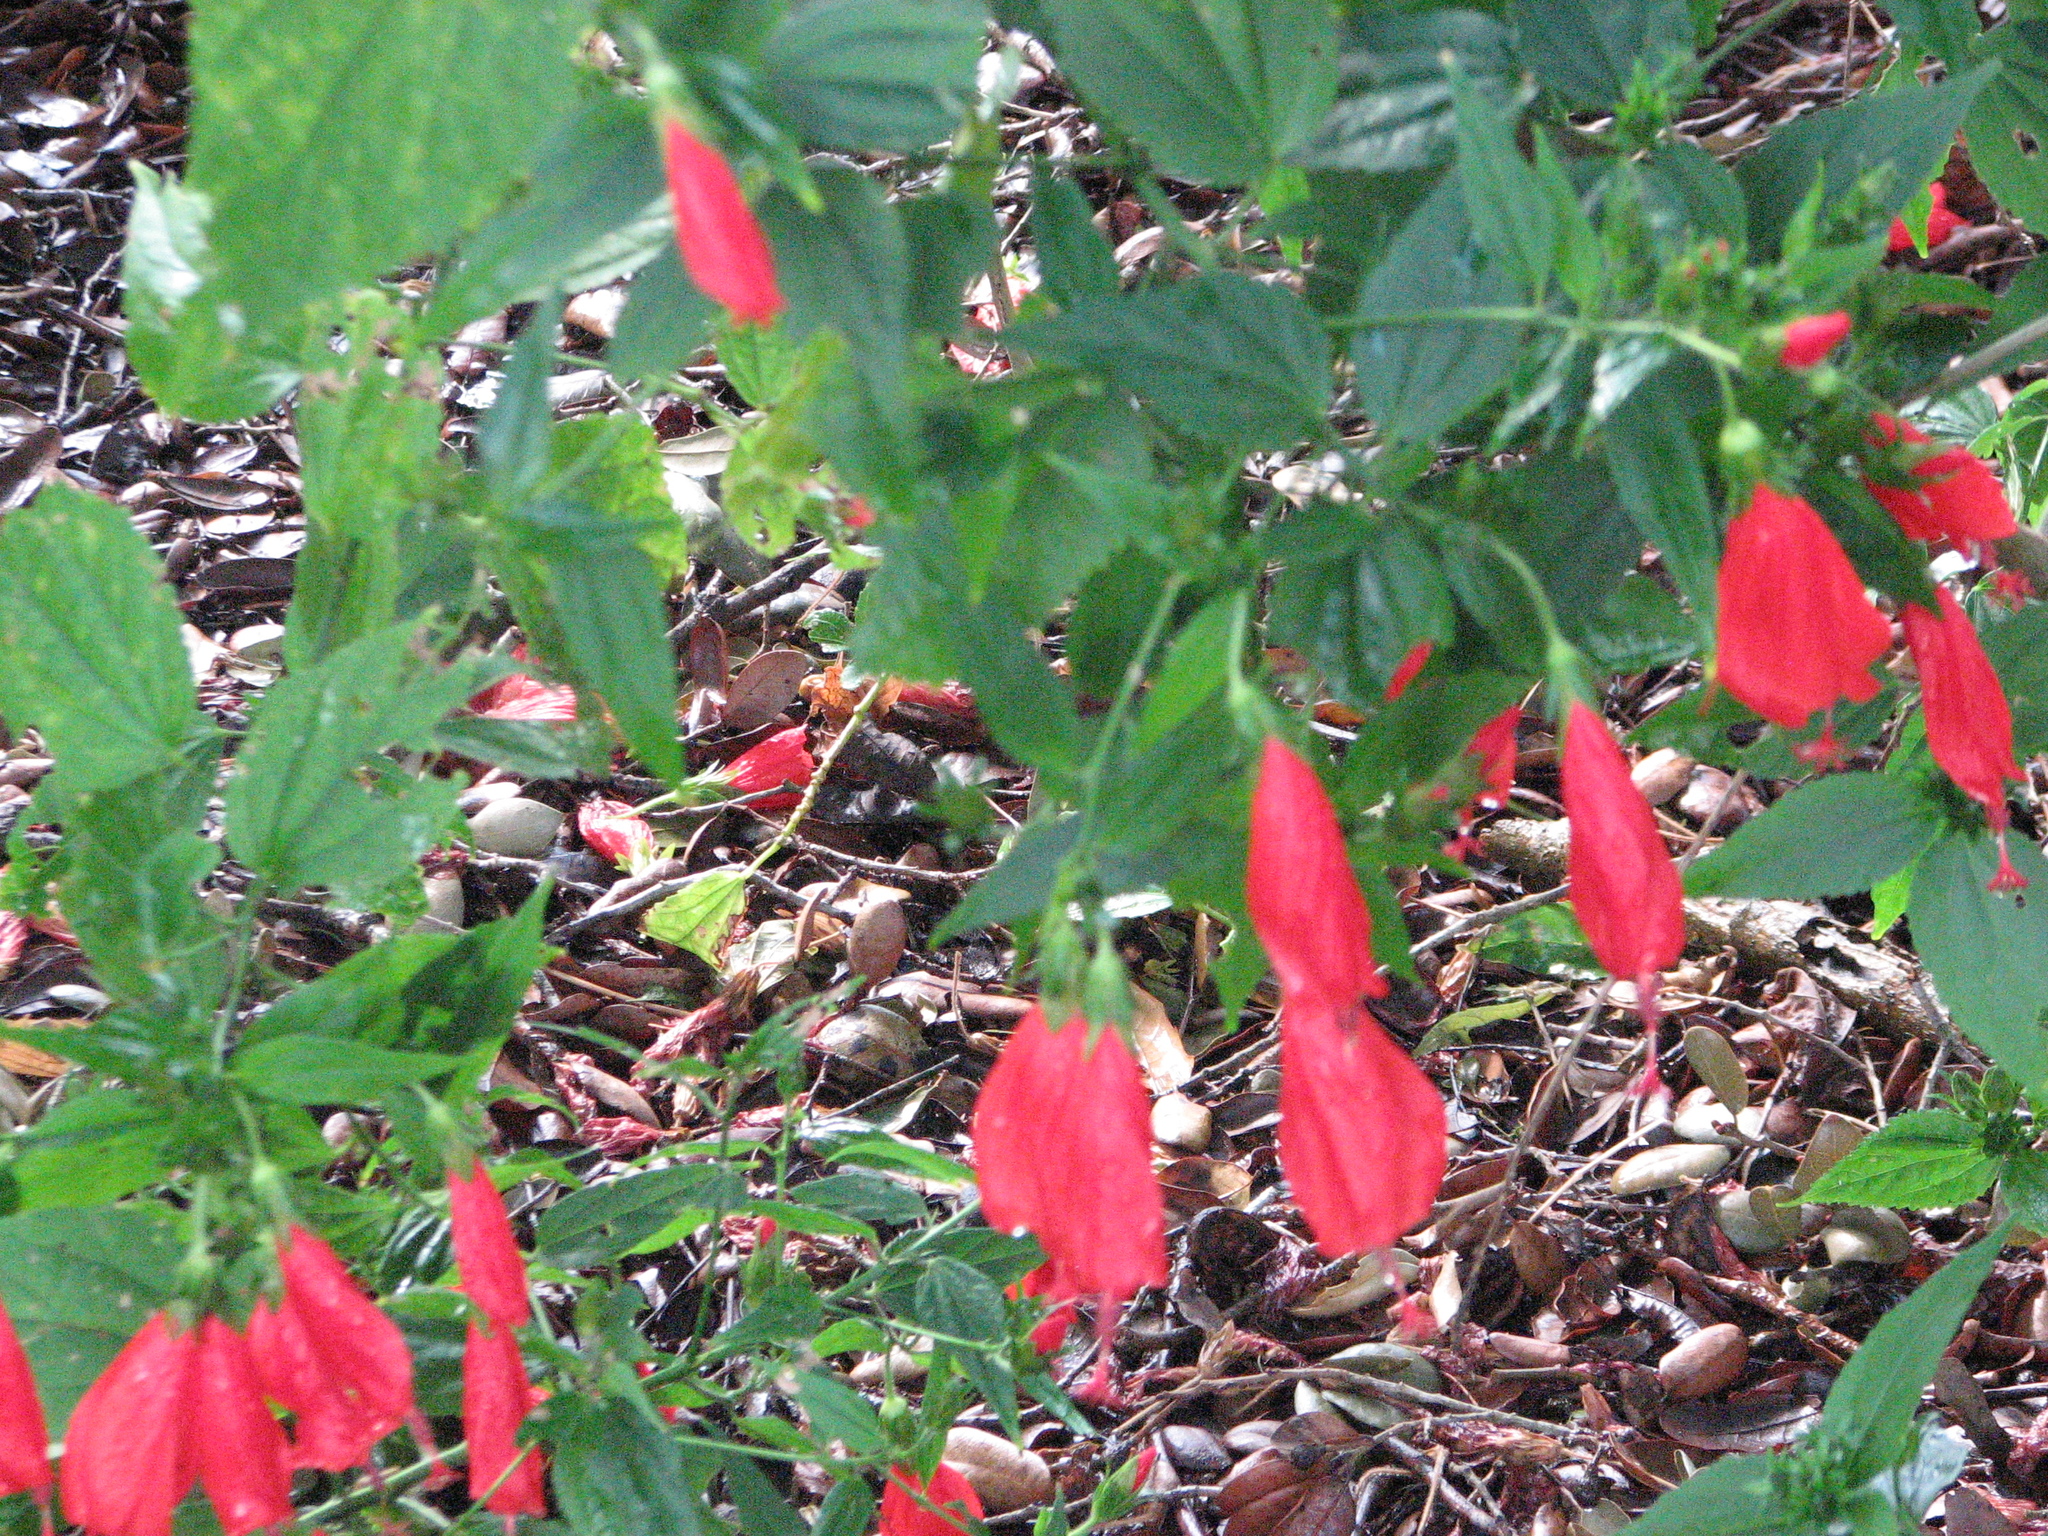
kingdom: Plantae
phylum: Tracheophyta
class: Magnoliopsida
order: Malvales
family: Malvaceae
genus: Malvaviscus
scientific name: Malvaviscus penduliflorus
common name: Mazapan
